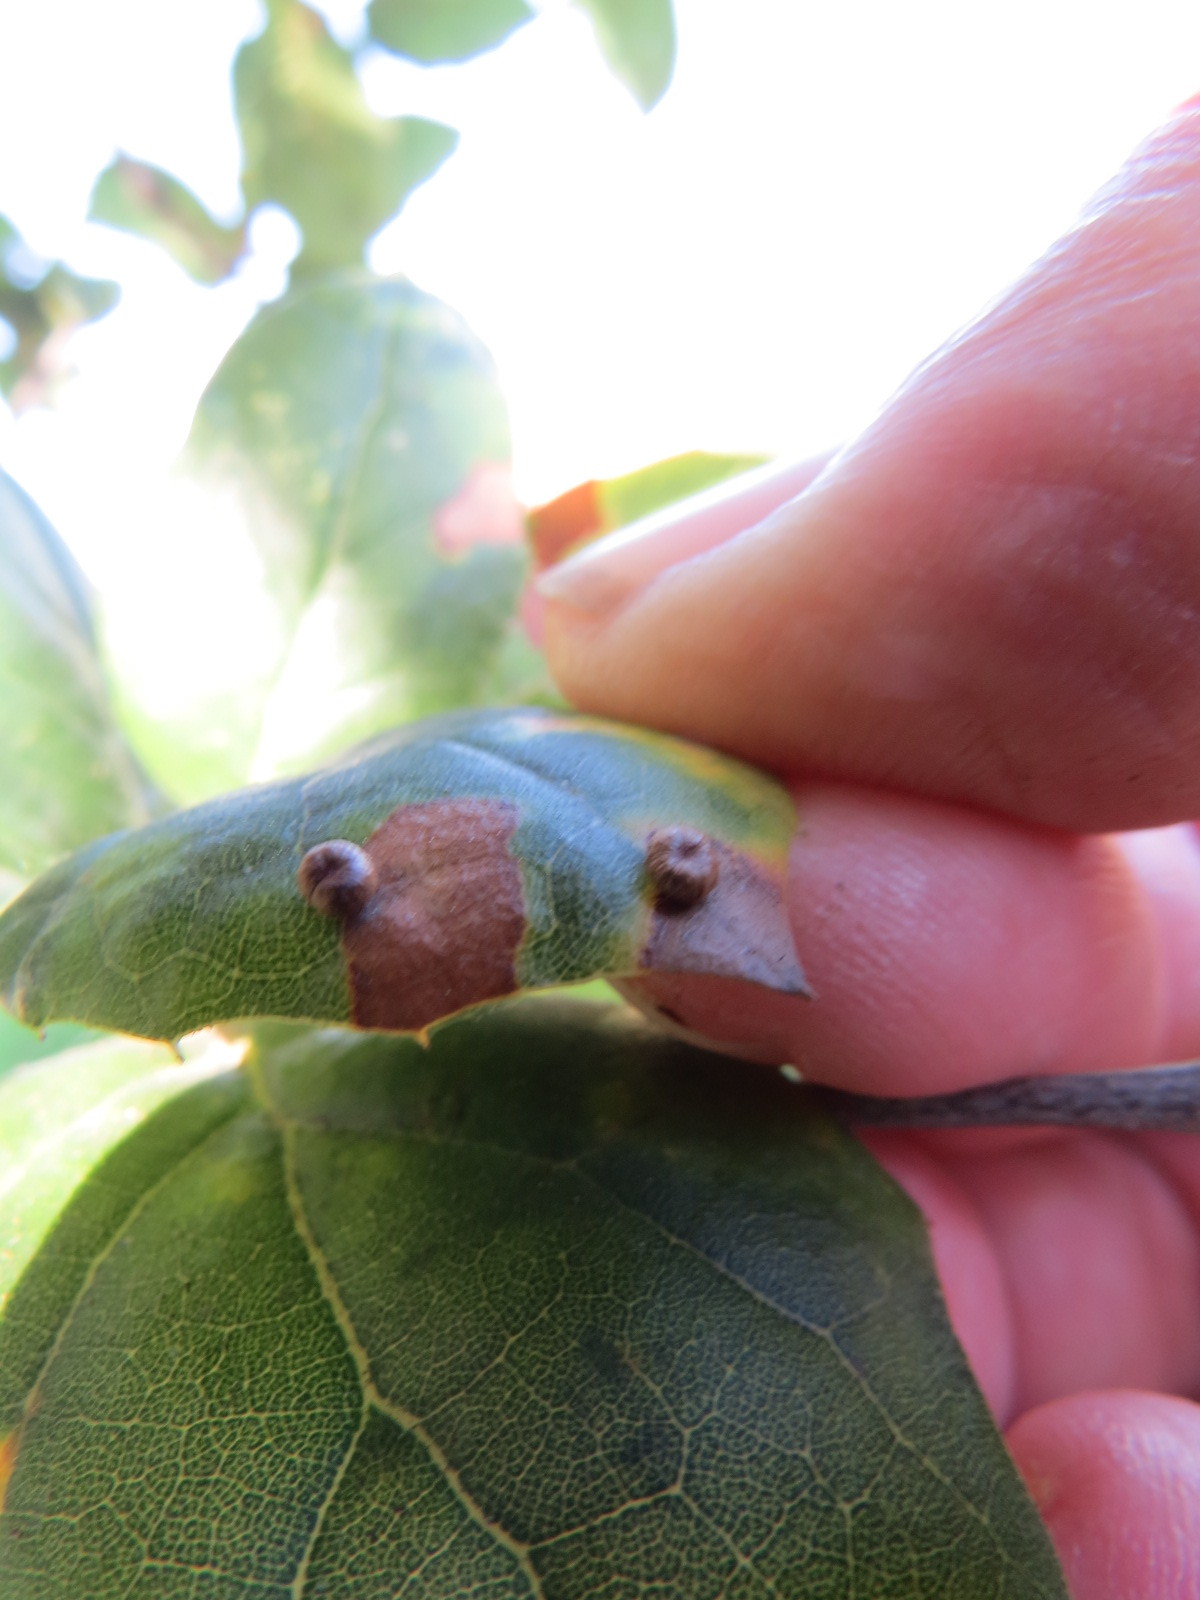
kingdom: Animalia
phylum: Arthropoda
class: Insecta
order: Hymenoptera
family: Cynipidae
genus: Dryocosmus
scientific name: Dryocosmus
